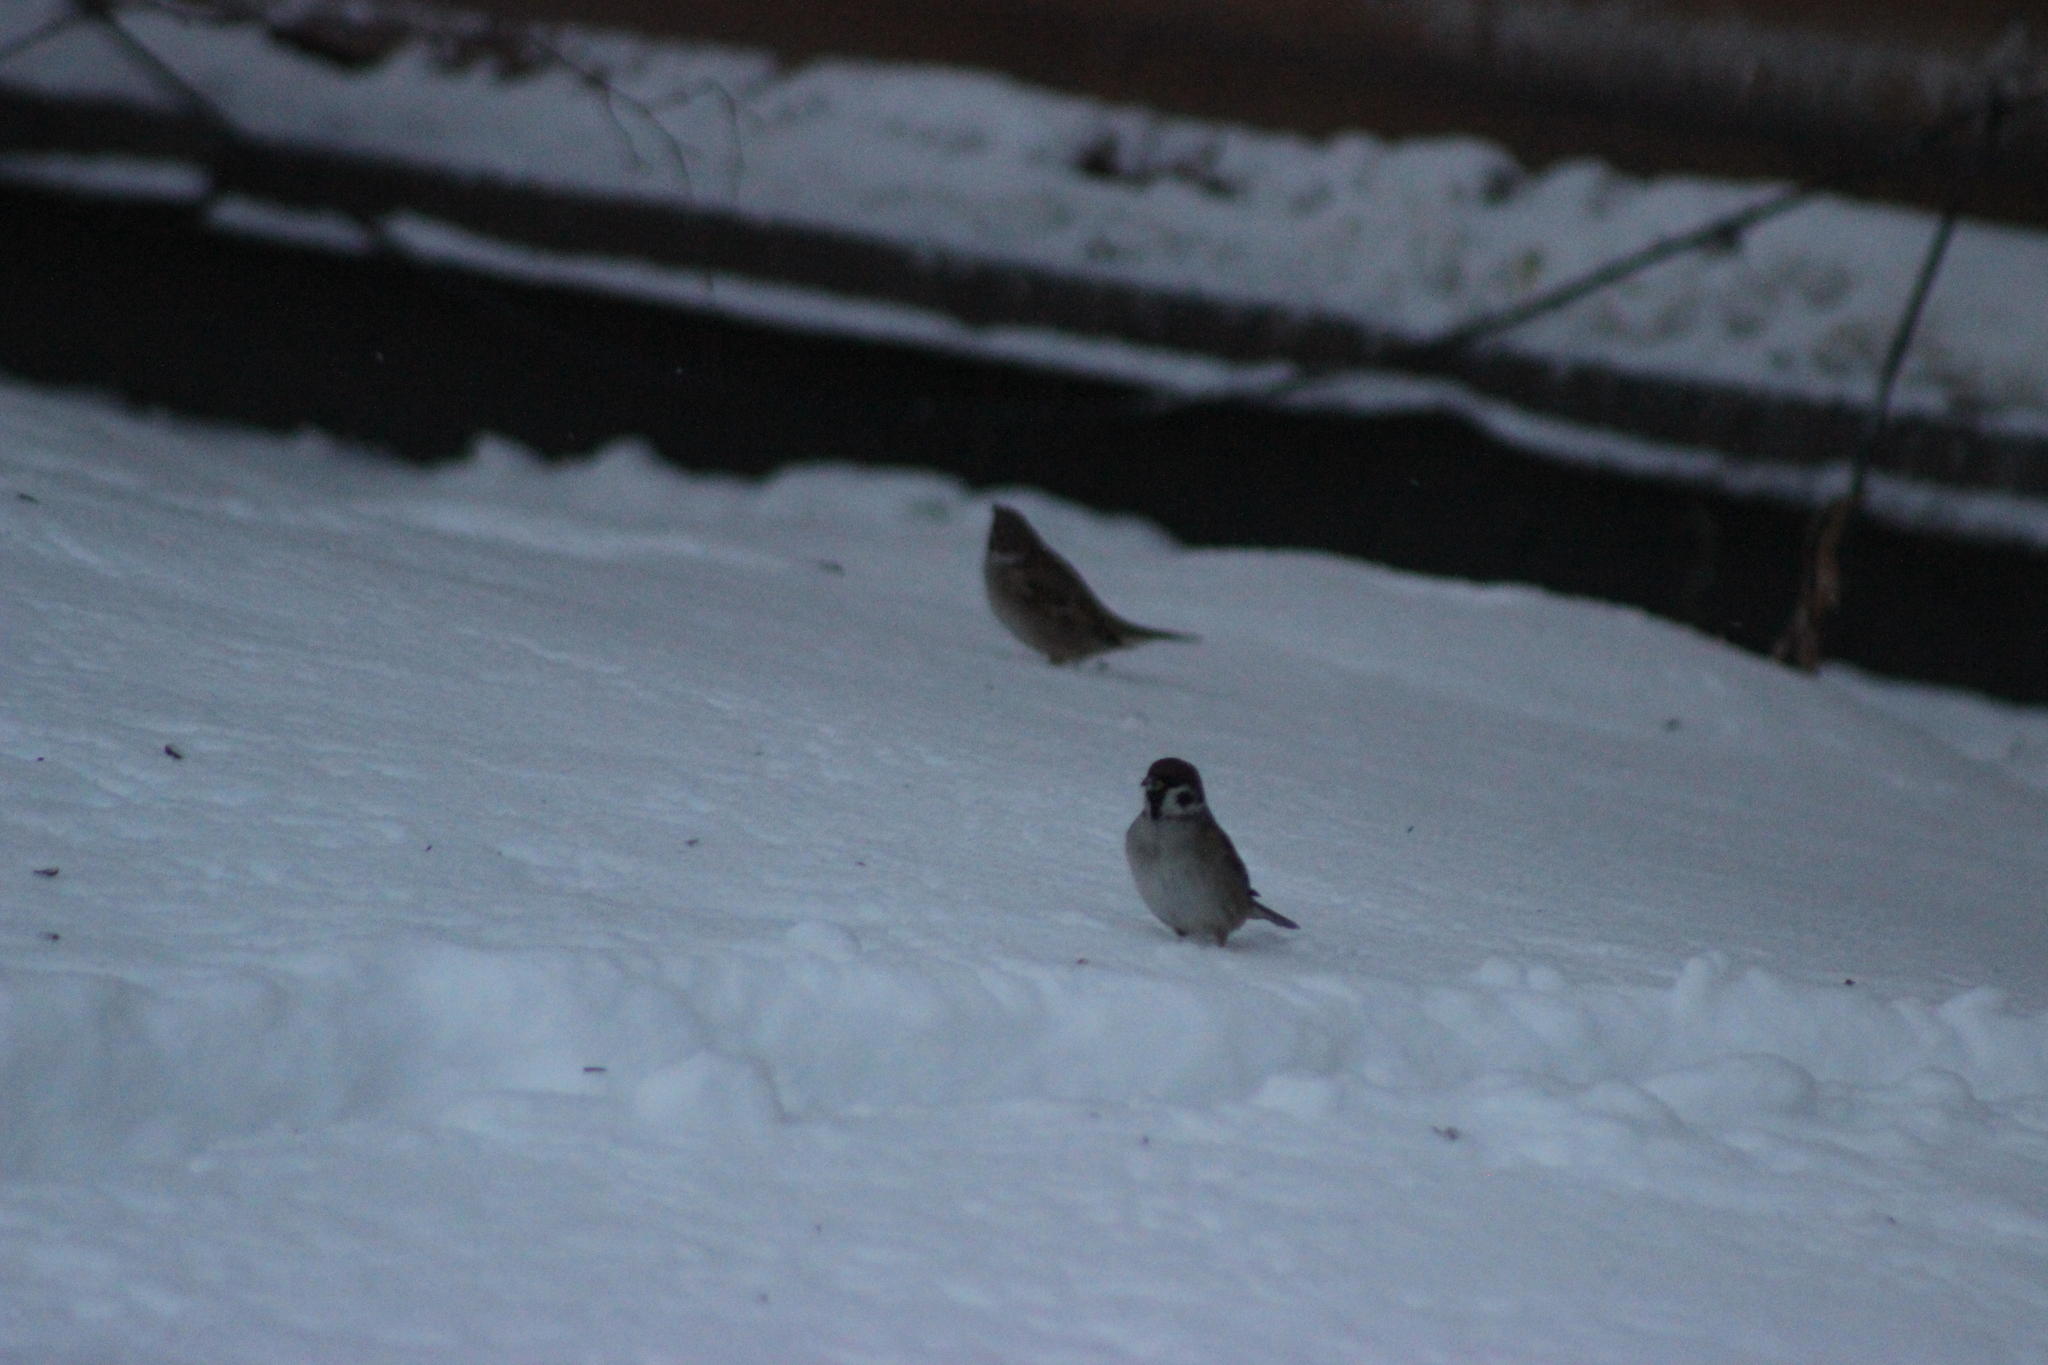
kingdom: Animalia
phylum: Chordata
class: Aves
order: Passeriformes
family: Passeridae
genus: Passer
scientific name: Passer montanus
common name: Eurasian tree sparrow
